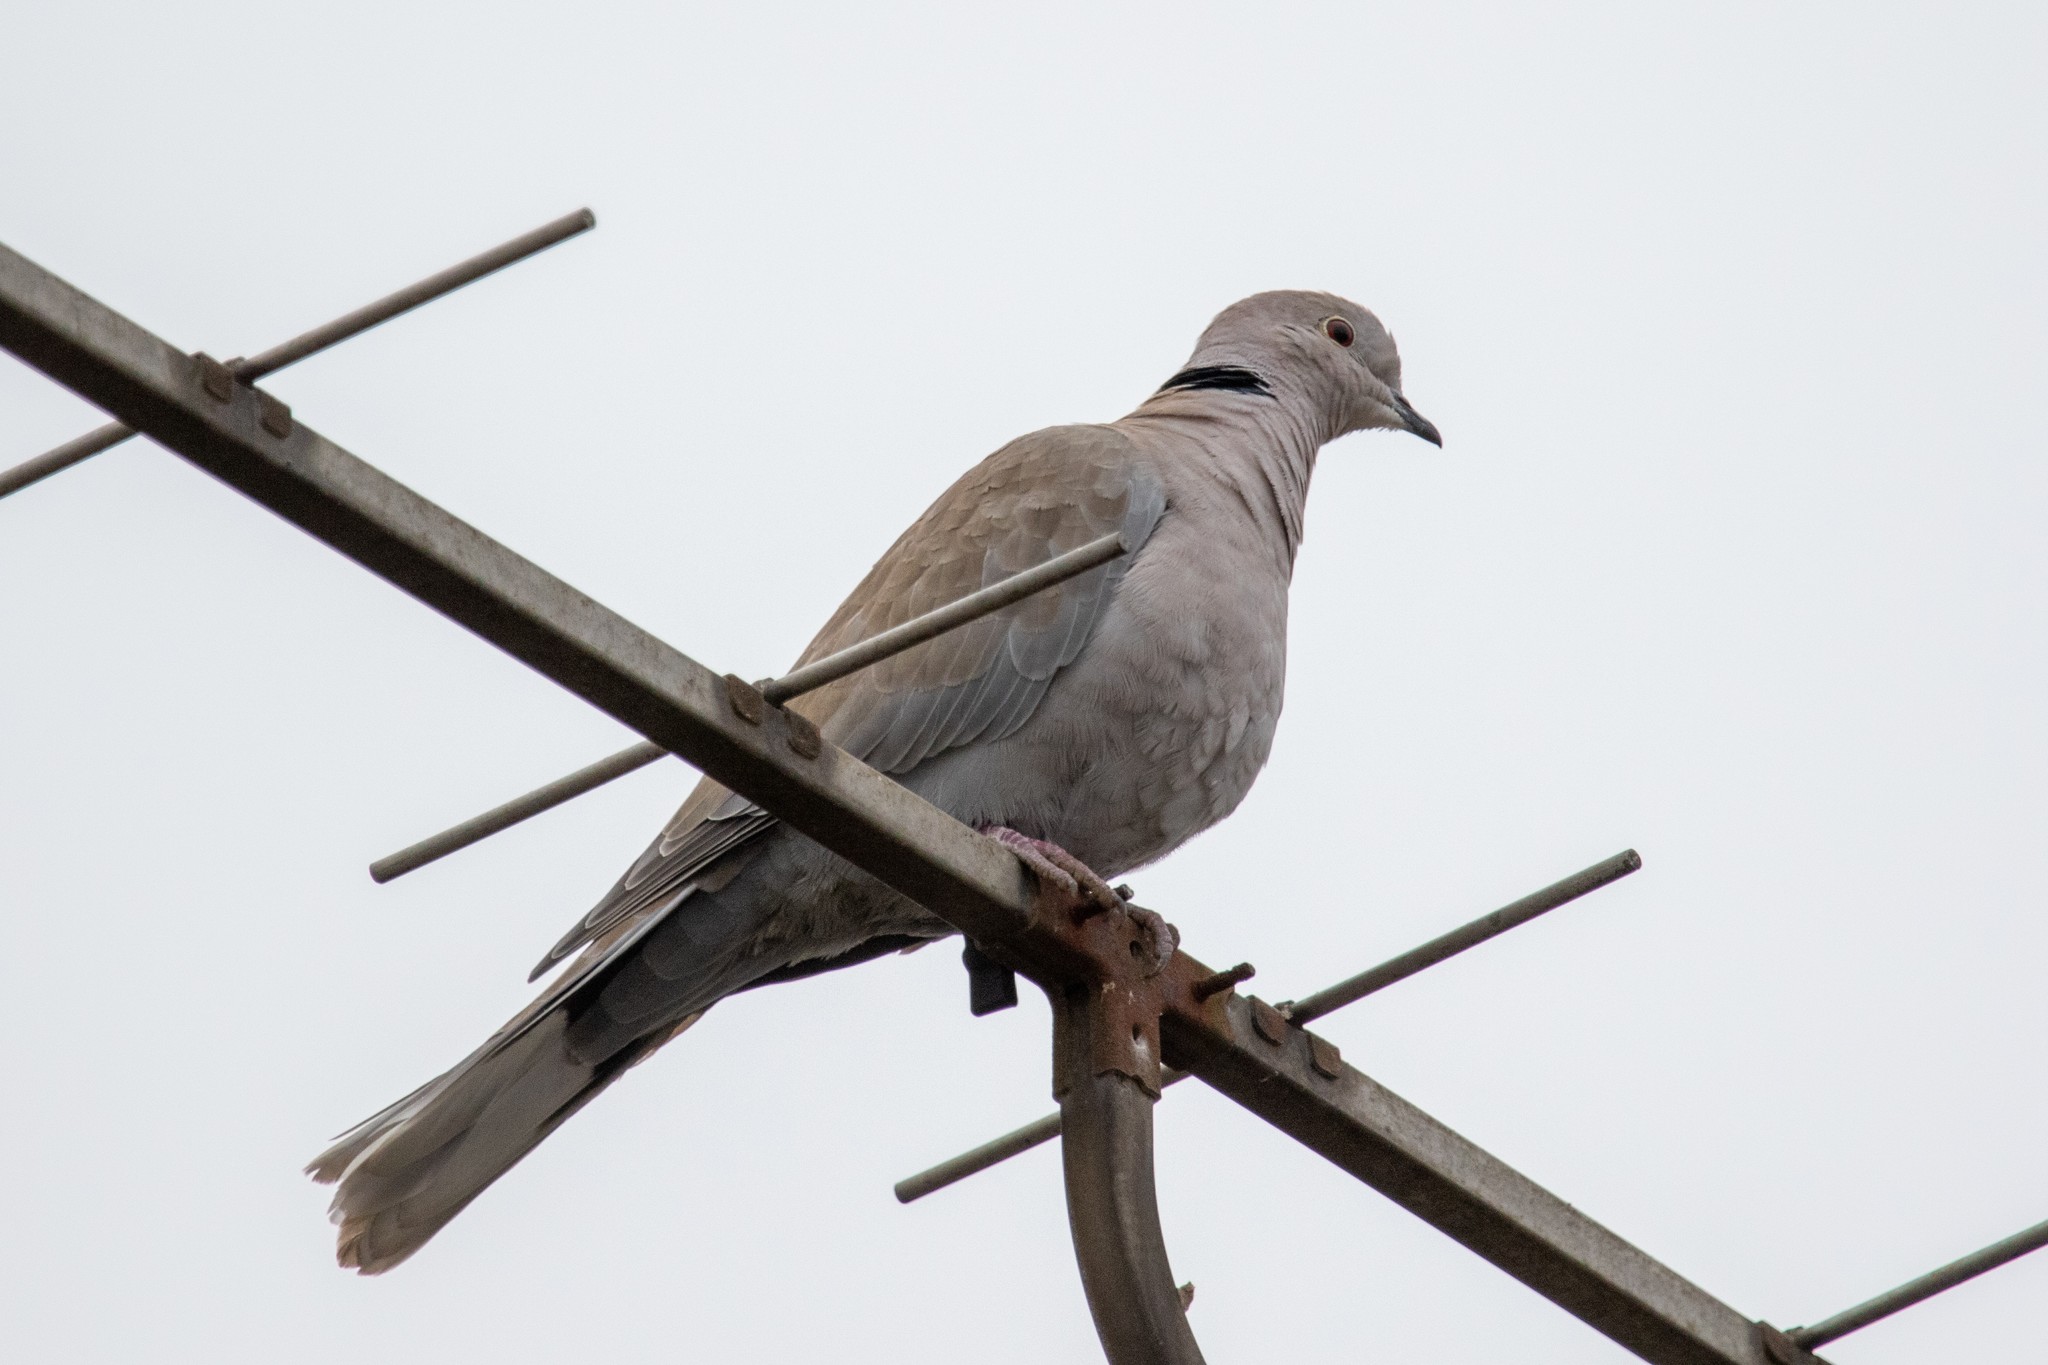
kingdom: Animalia
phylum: Chordata
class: Aves
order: Columbiformes
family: Columbidae
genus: Streptopelia
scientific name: Streptopelia decaocto
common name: Eurasian collared dove
